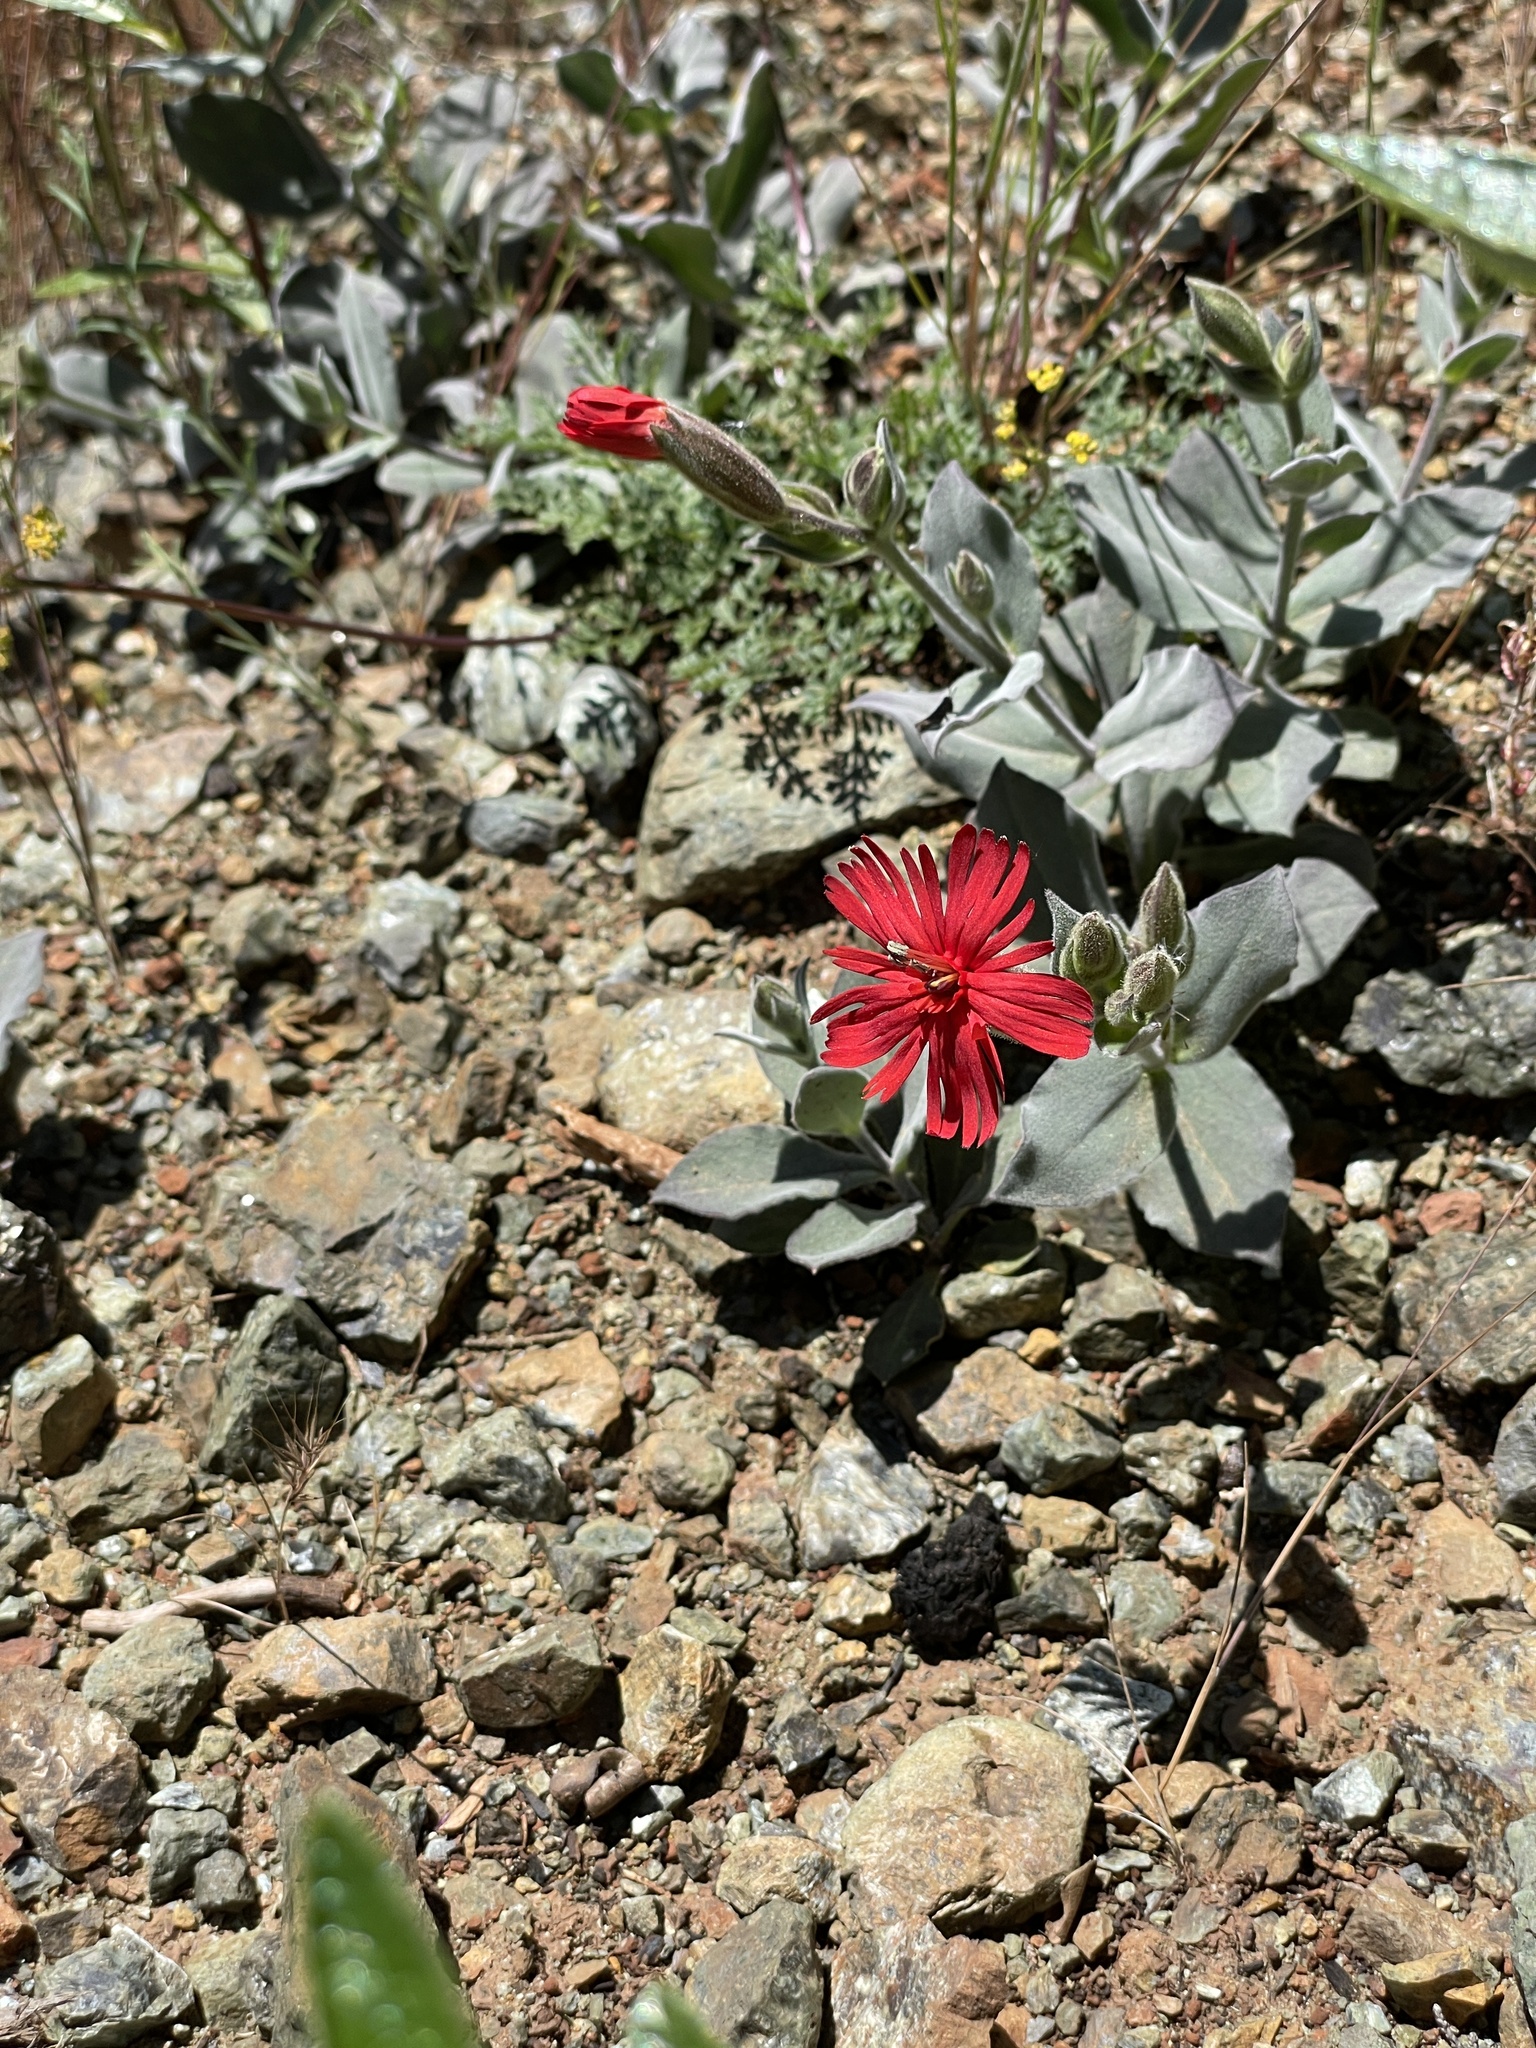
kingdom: Plantae
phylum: Tracheophyta
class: Magnoliopsida
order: Caryophyllales
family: Caryophyllaceae
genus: Silene
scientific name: Silene laciniata
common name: Indian-pink
